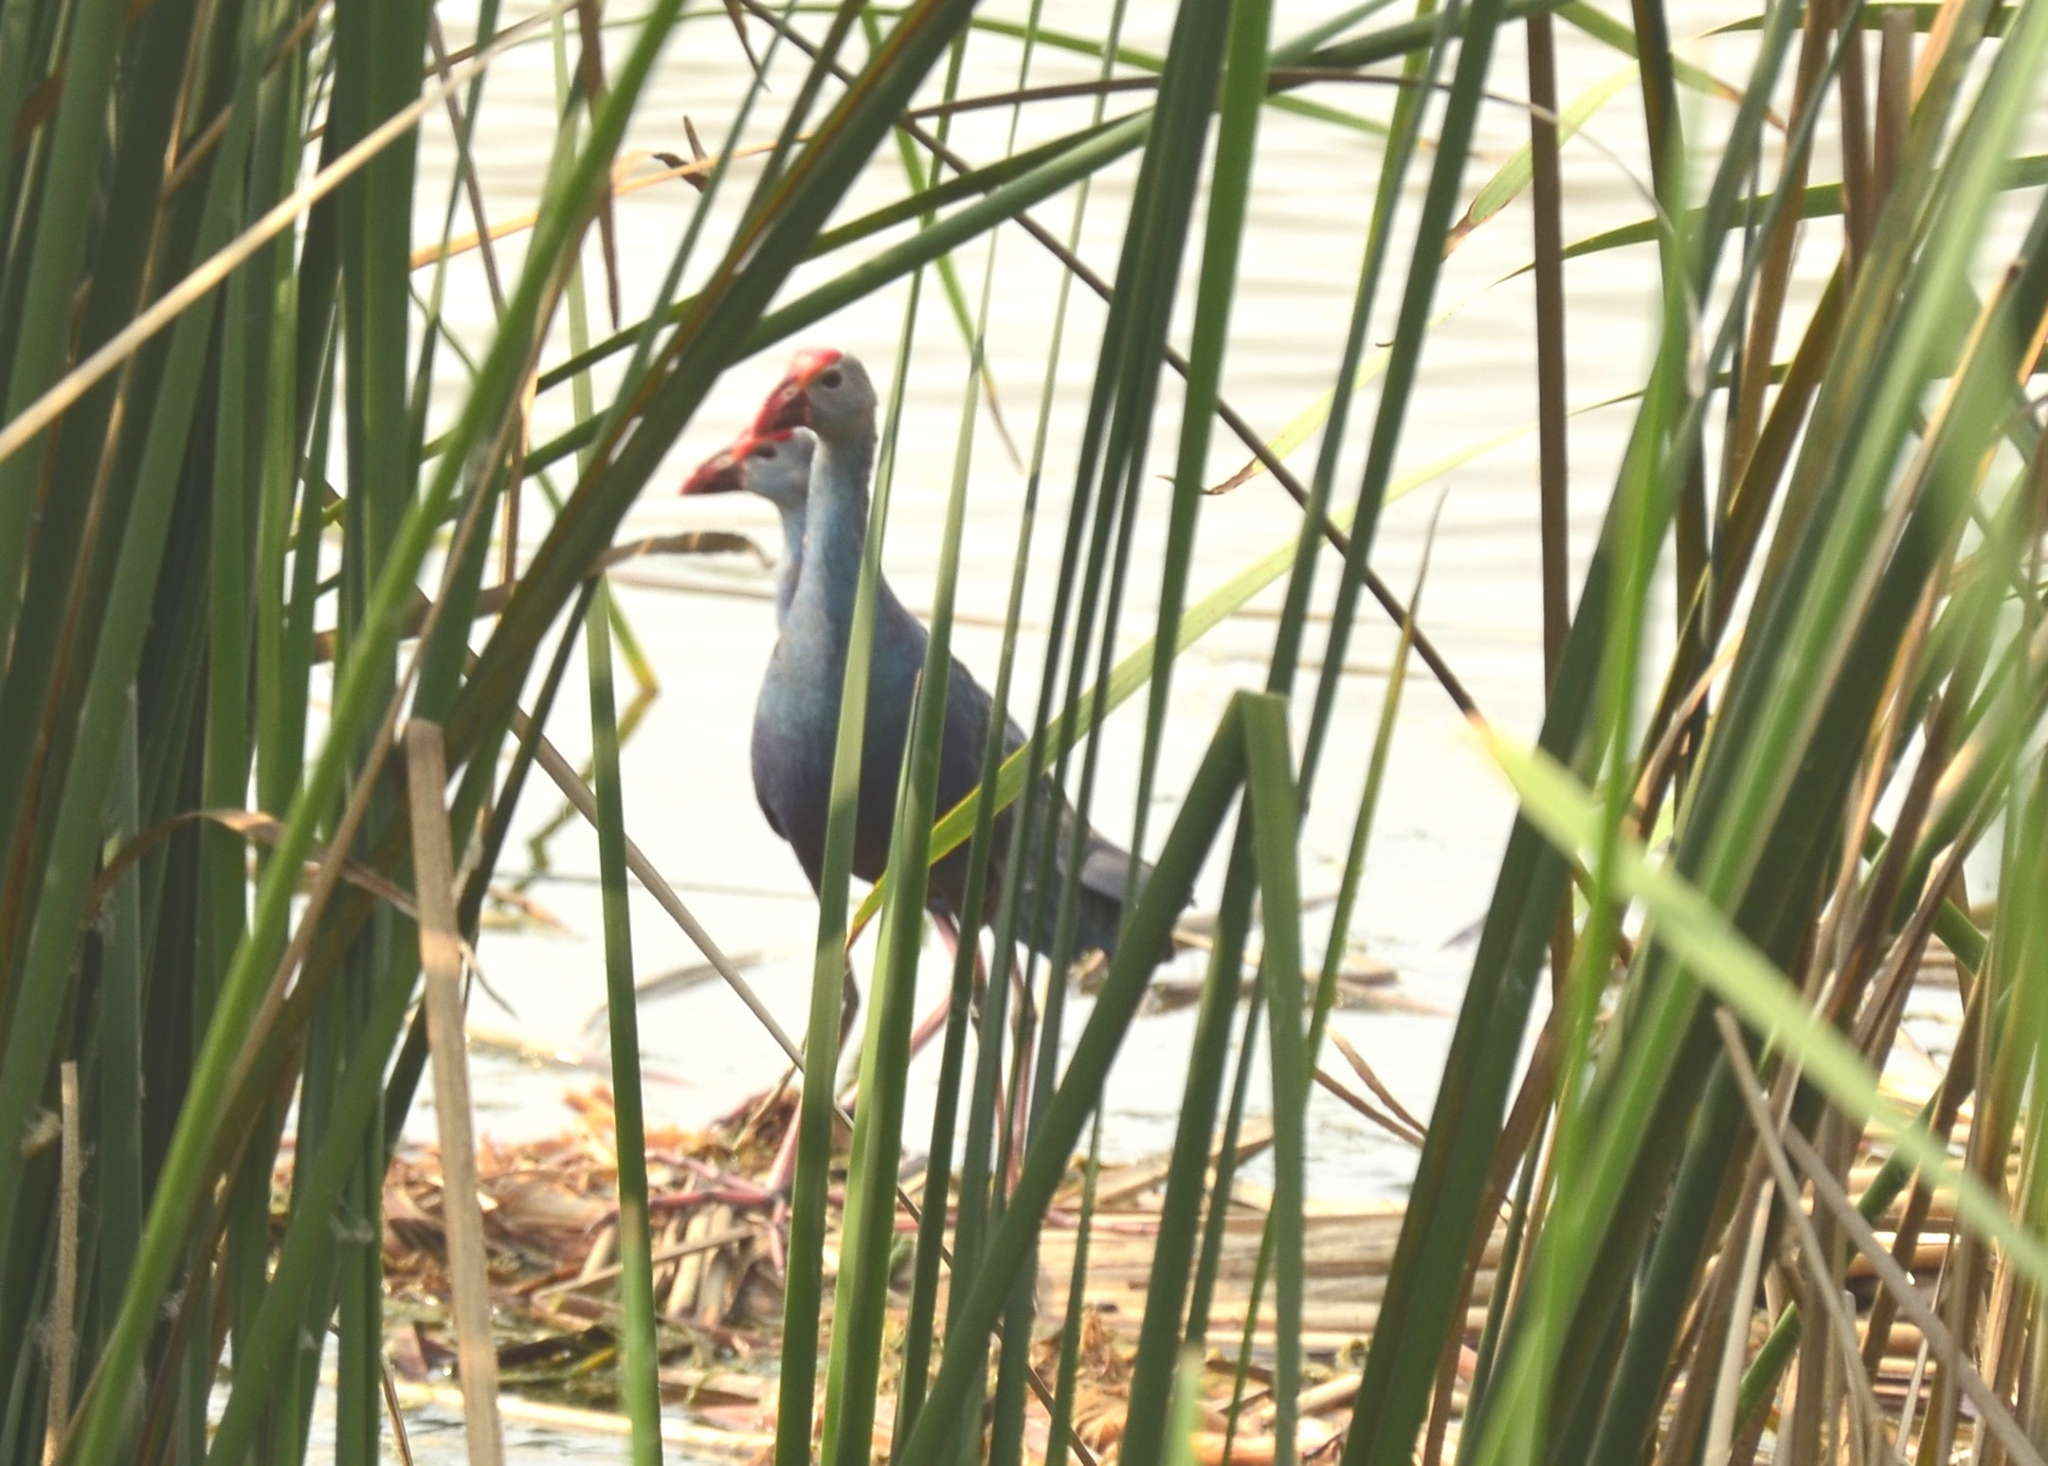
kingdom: Animalia
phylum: Chordata
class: Aves
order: Gruiformes
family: Rallidae
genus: Porphyrio
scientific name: Porphyrio porphyrio
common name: Purple swamphen
